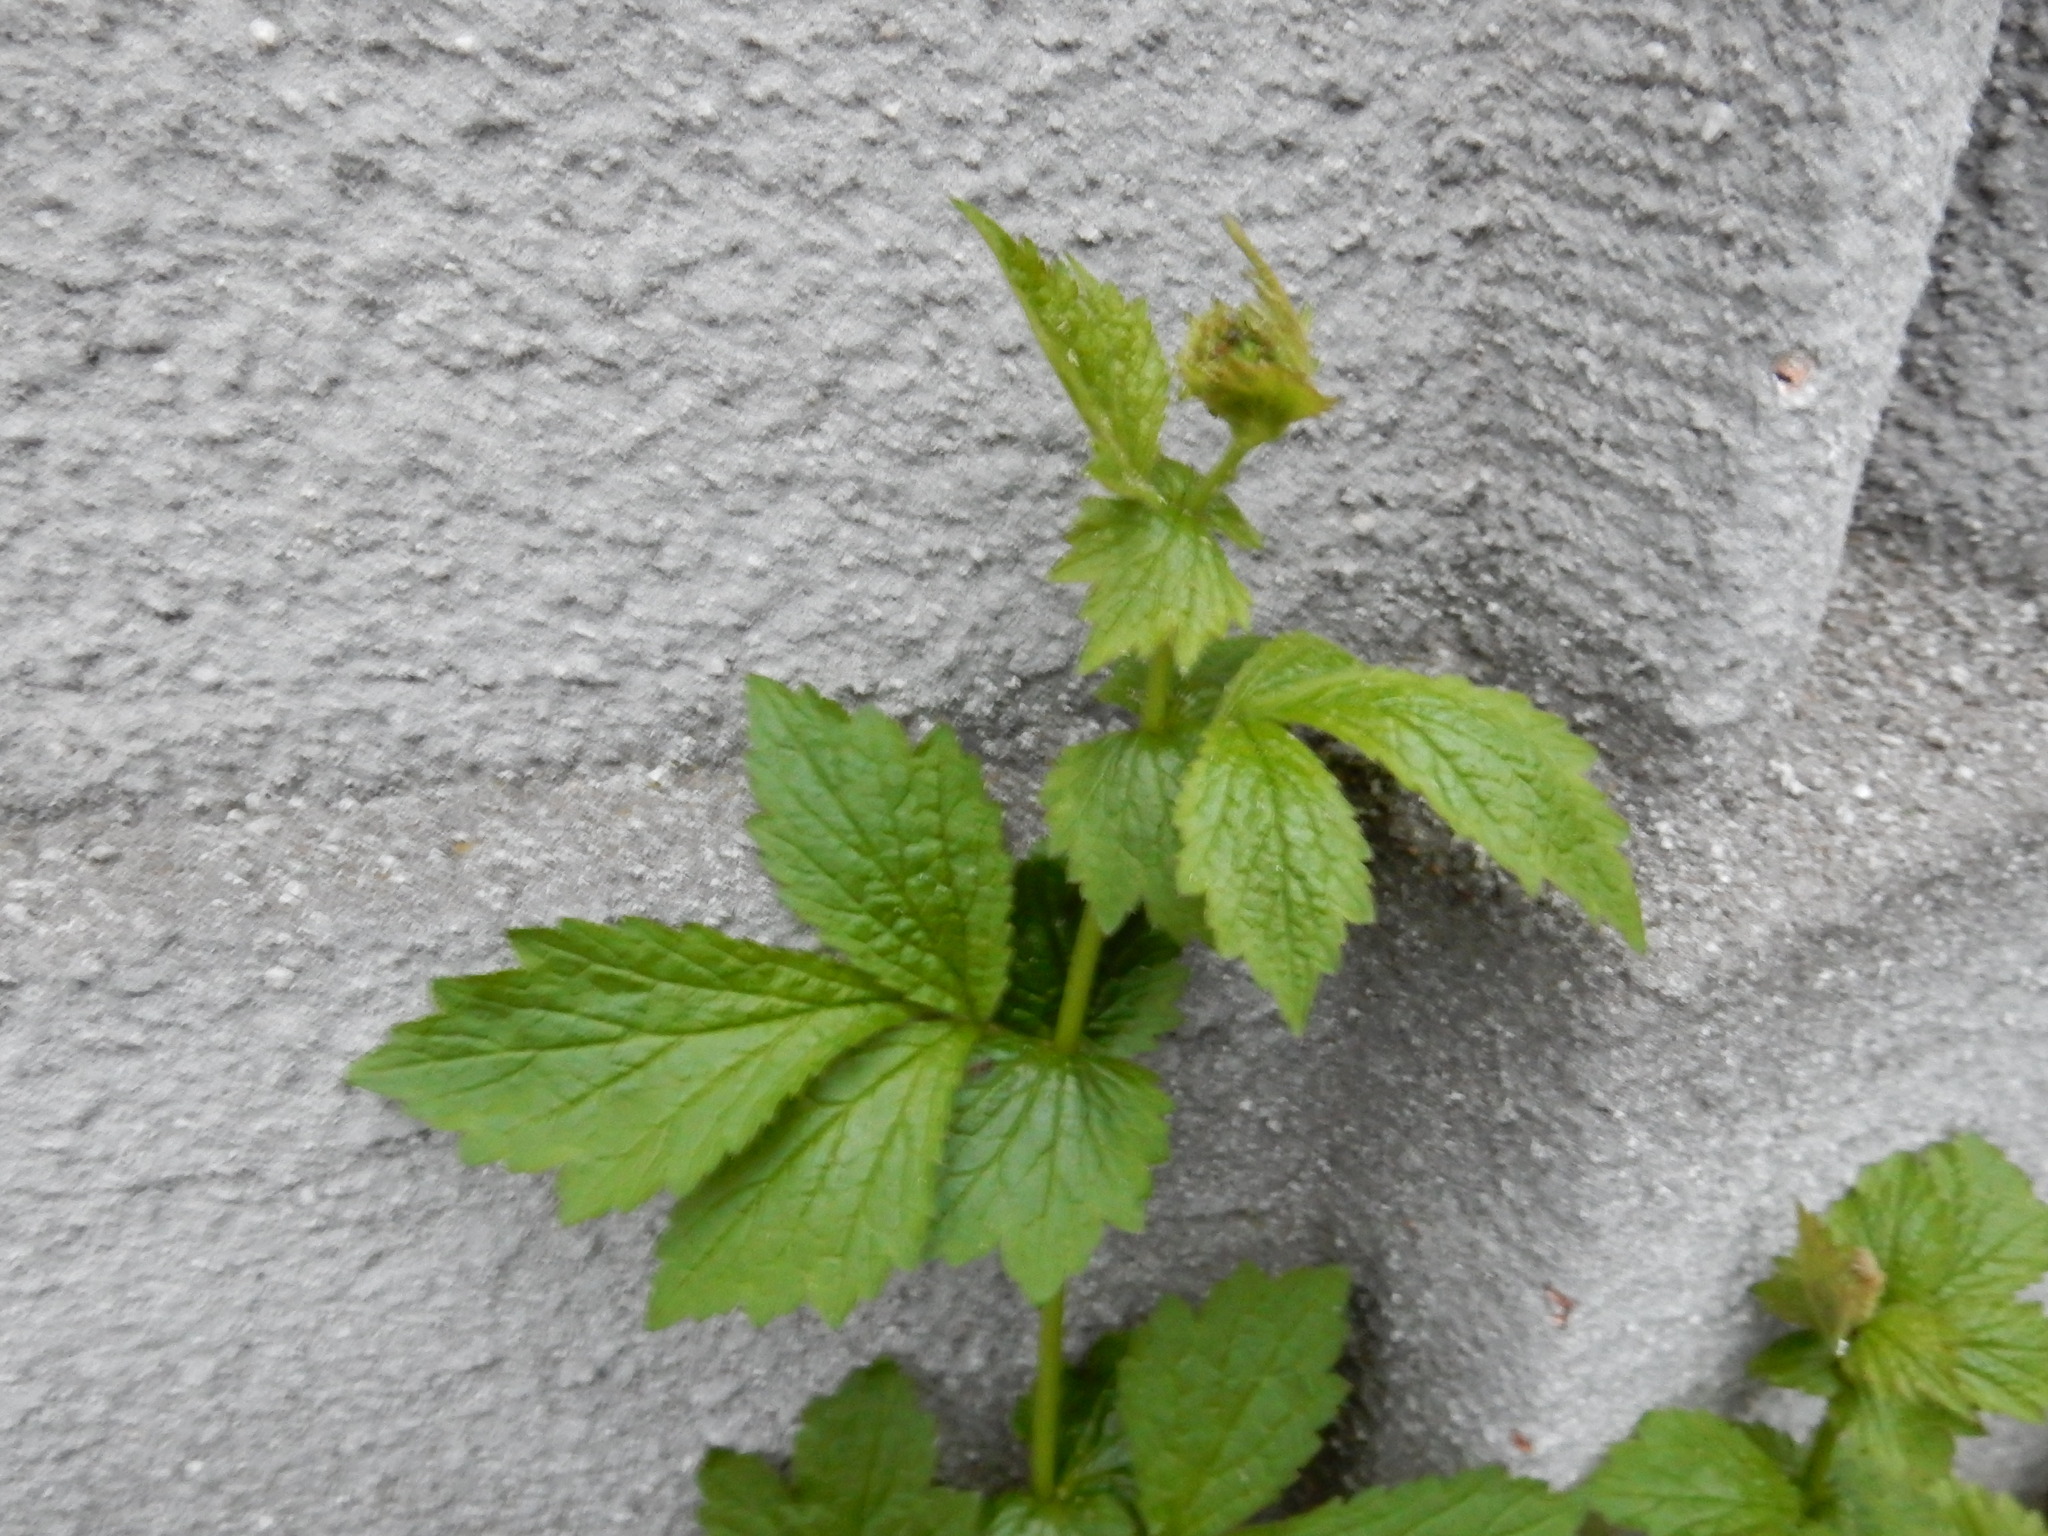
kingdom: Plantae
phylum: Tracheophyta
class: Magnoliopsida
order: Rosales
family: Rosaceae
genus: Geum
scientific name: Geum urbanum
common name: Wood avens
